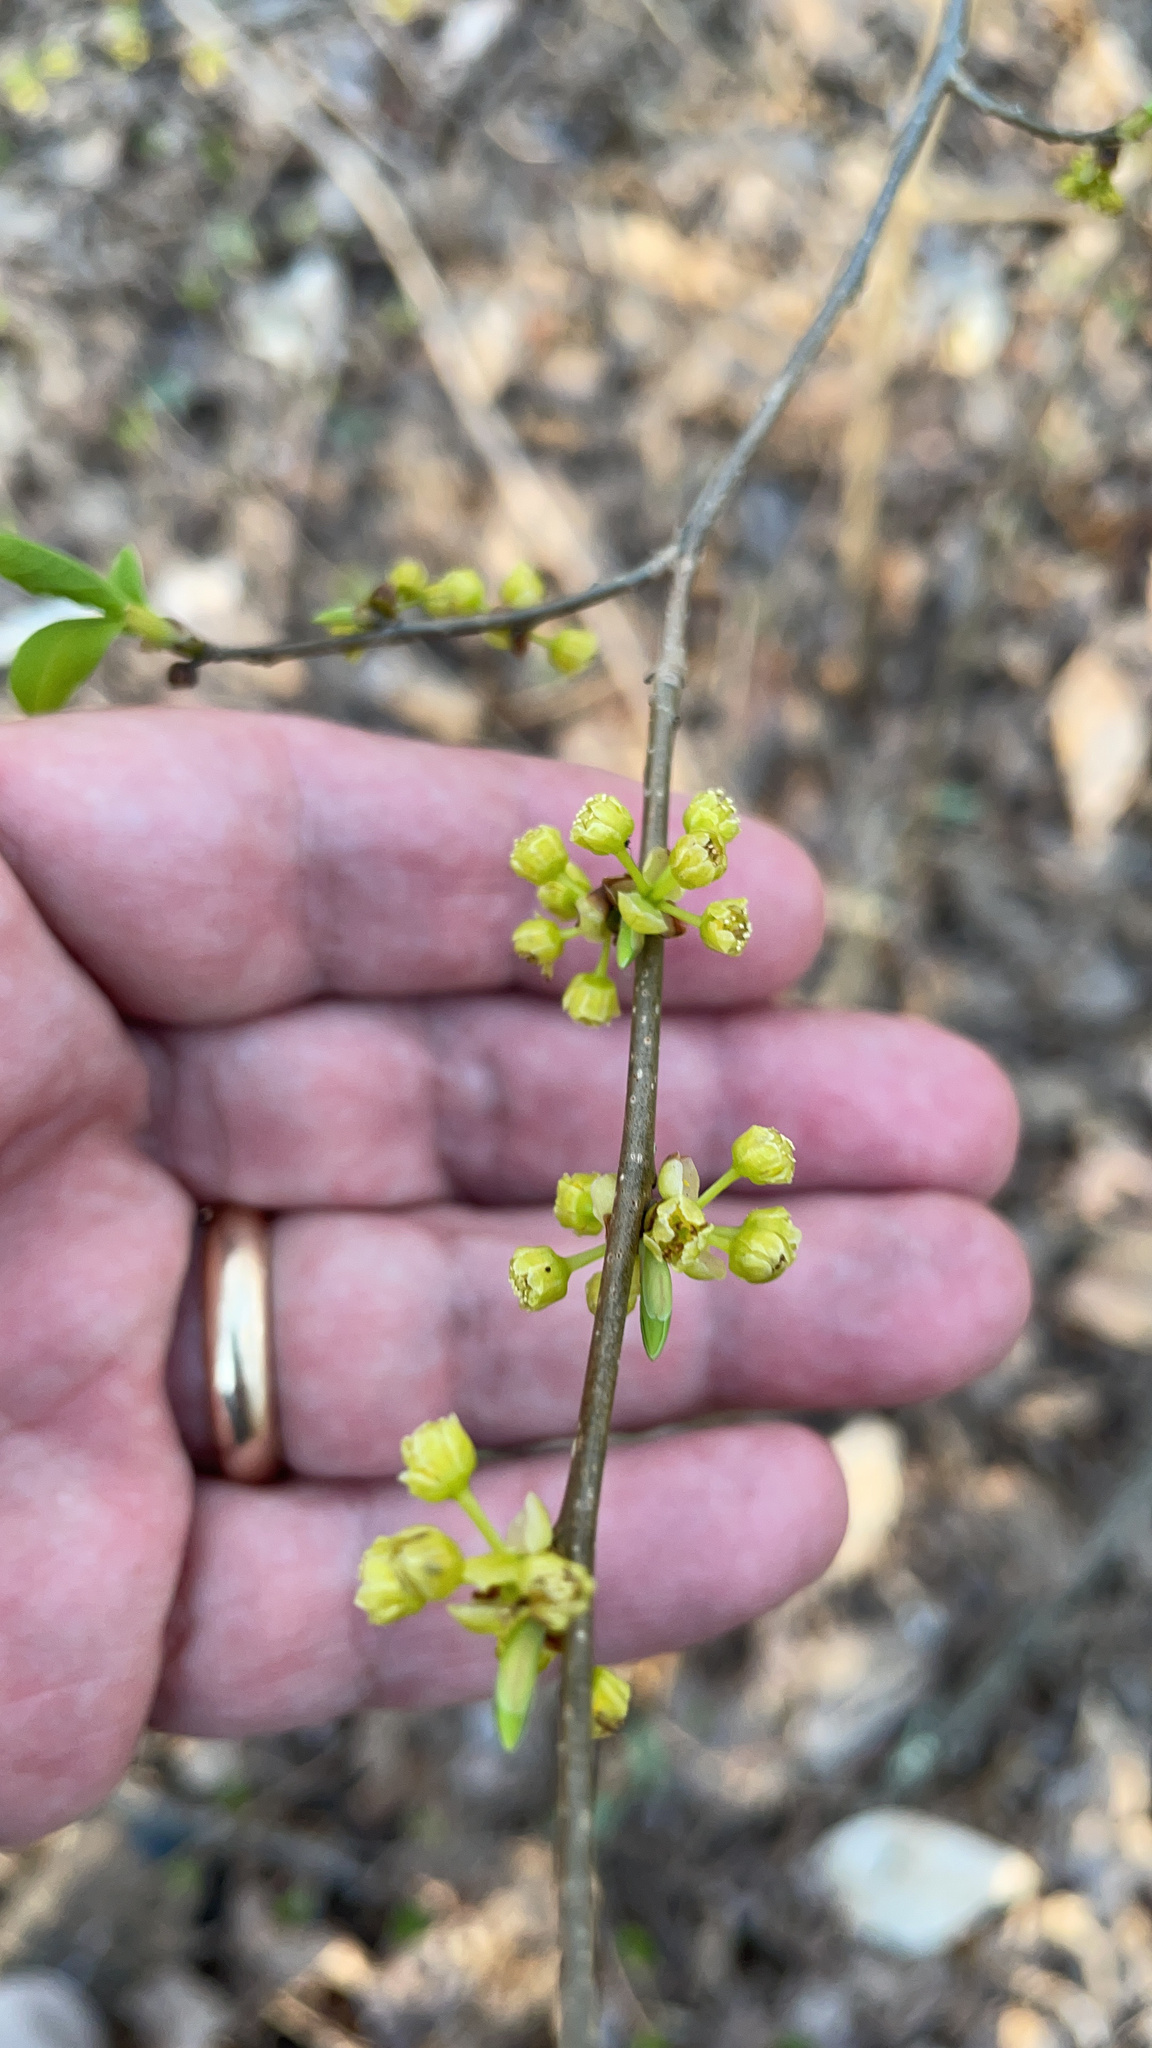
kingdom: Plantae
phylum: Tracheophyta
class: Magnoliopsida
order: Laurales
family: Lauraceae
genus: Lindera
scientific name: Lindera benzoin
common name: Spicebush
